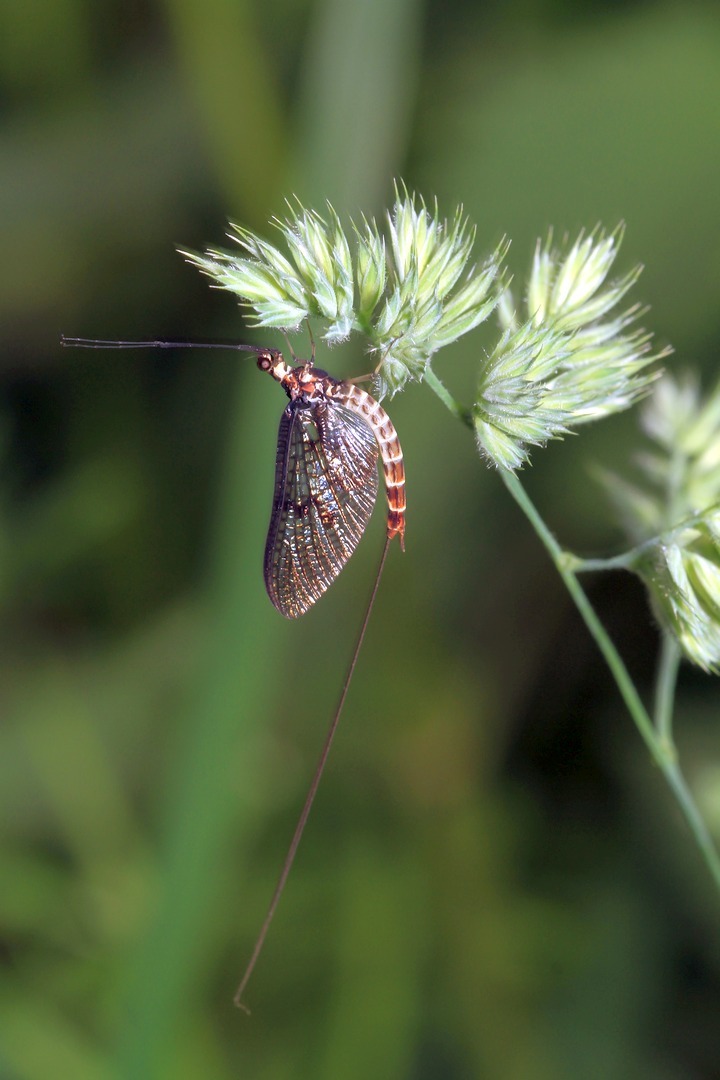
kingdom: Animalia
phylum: Arthropoda
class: Insecta
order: Ephemeroptera
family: Ephemeridae
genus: Ephemera
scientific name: Ephemera danica
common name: Green dun
